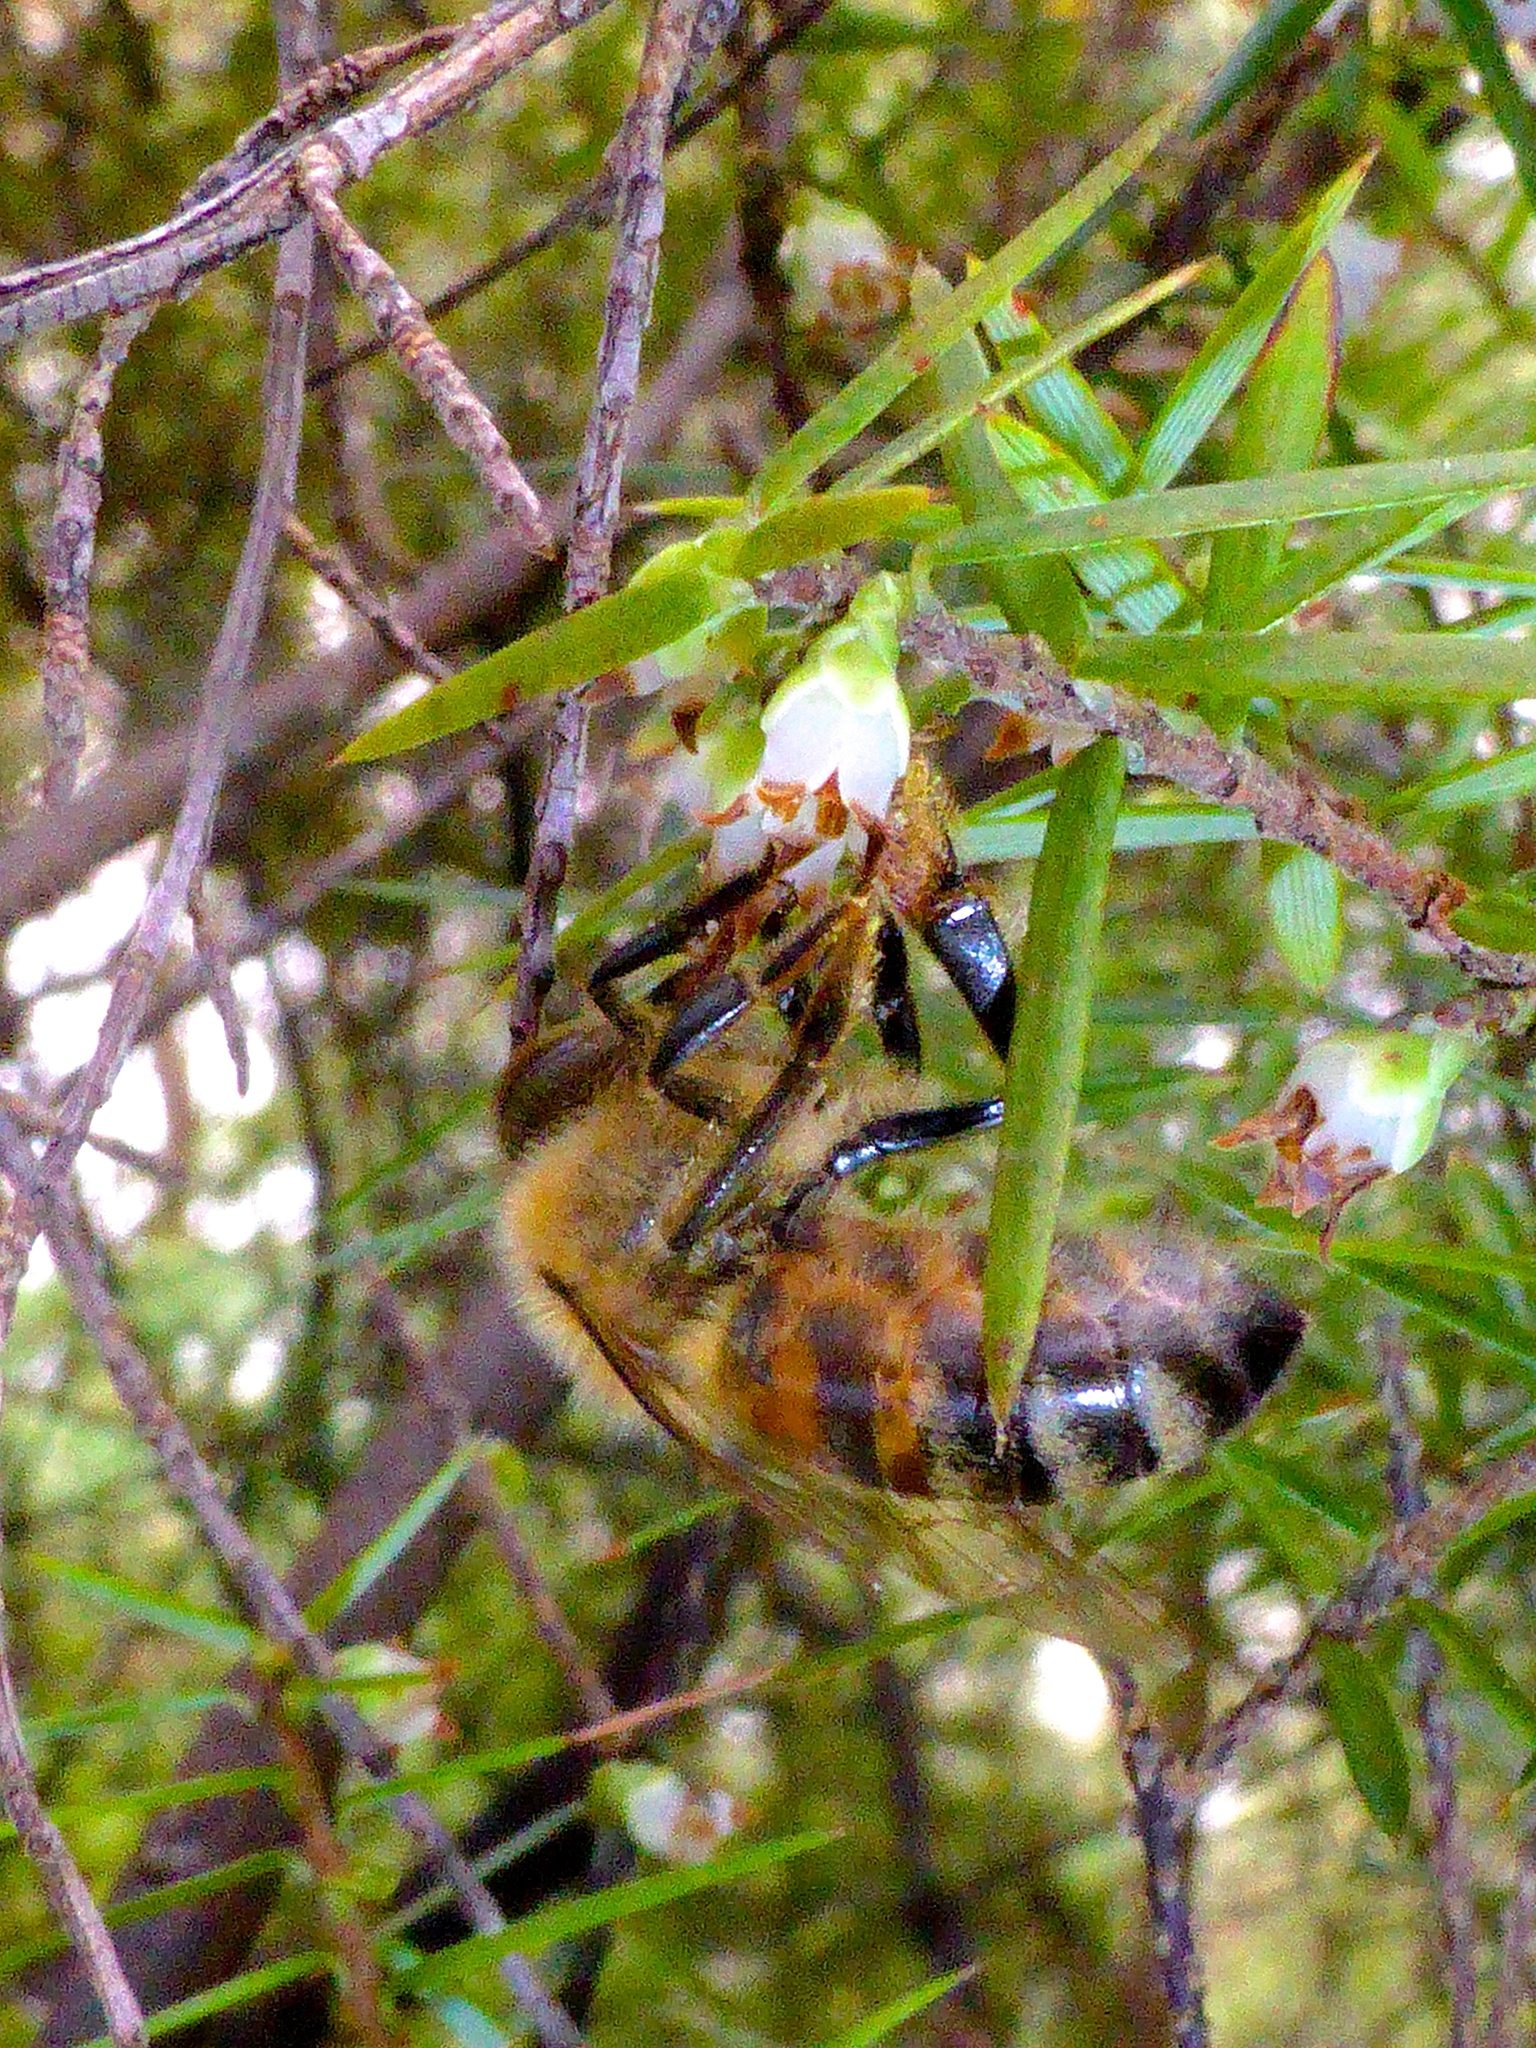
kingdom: Animalia
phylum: Arthropoda
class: Insecta
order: Hymenoptera
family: Apidae
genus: Apis
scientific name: Apis mellifera
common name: Honey bee
